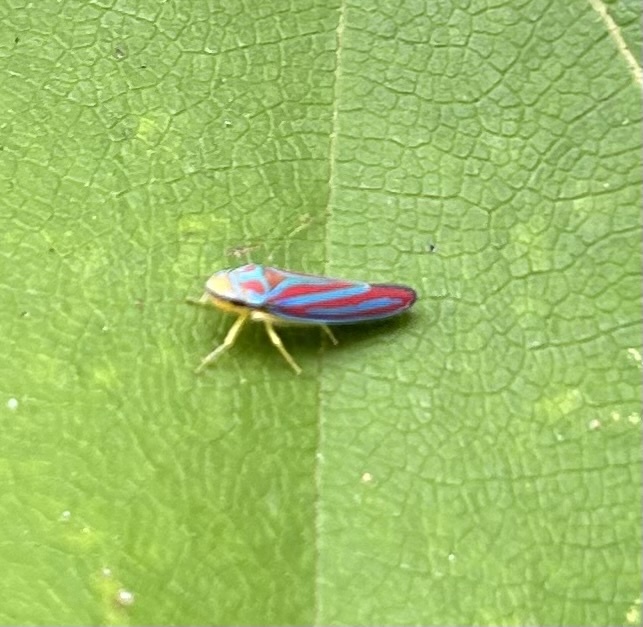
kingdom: Animalia
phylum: Arthropoda
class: Insecta
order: Hemiptera
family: Cicadellidae
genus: Graphocephala
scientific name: Graphocephala coccinea
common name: Candy-striped leafhopper
